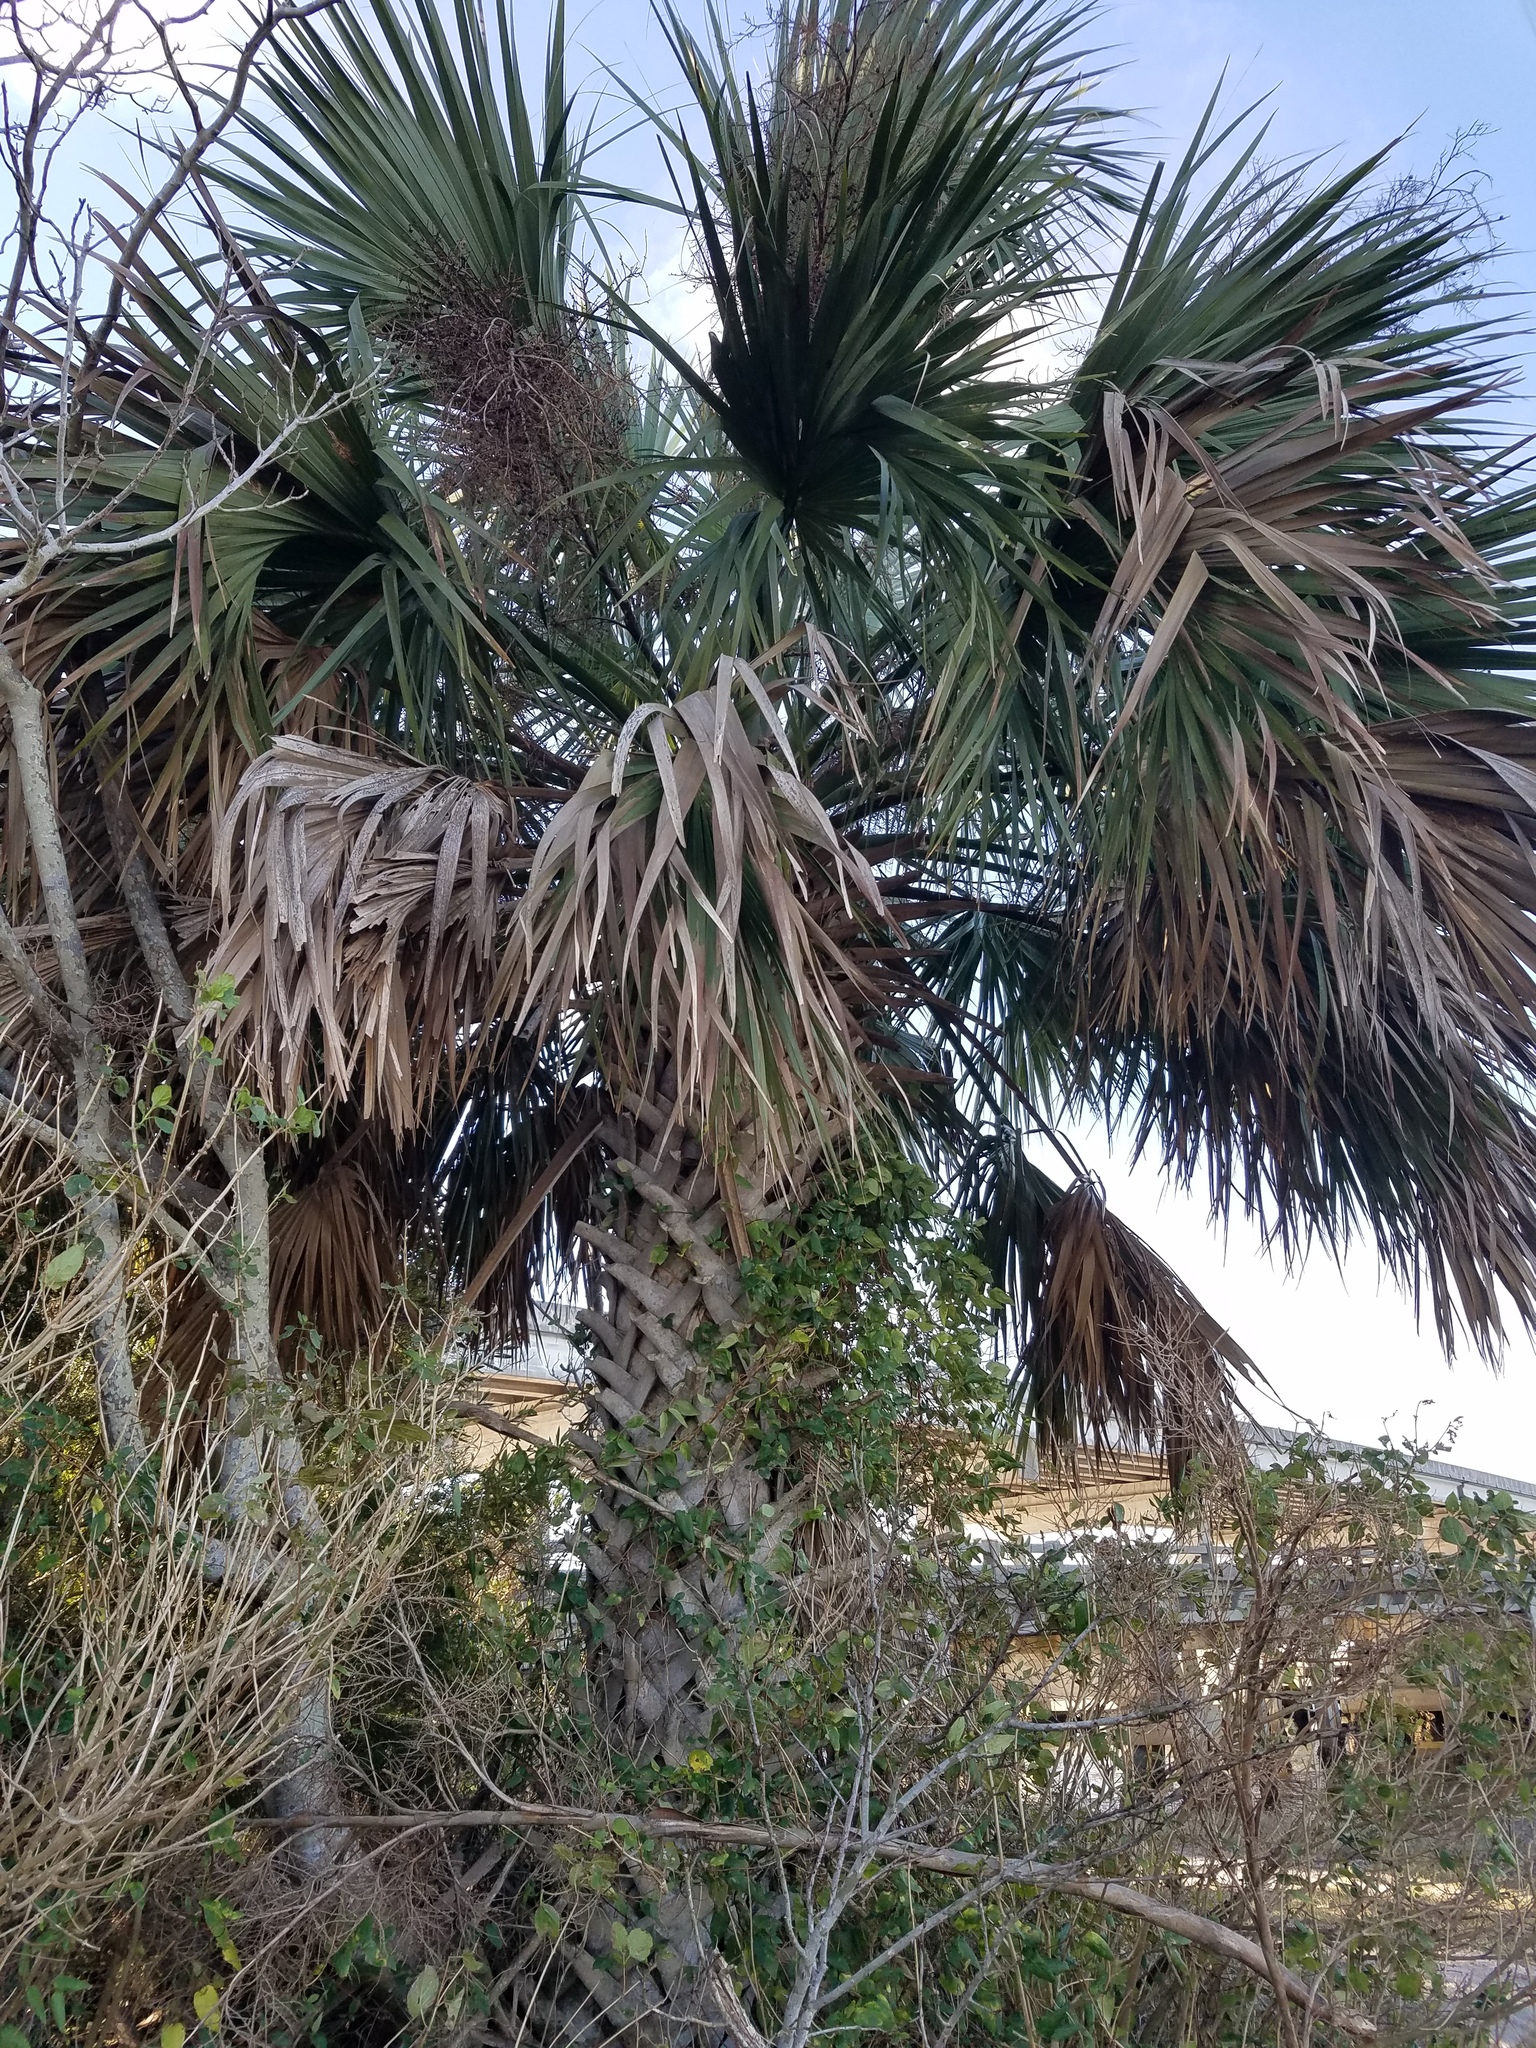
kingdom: Plantae
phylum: Tracheophyta
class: Liliopsida
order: Arecales
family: Arecaceae
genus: Sabal
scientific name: Sabal palmetto
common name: Blue palmetto
